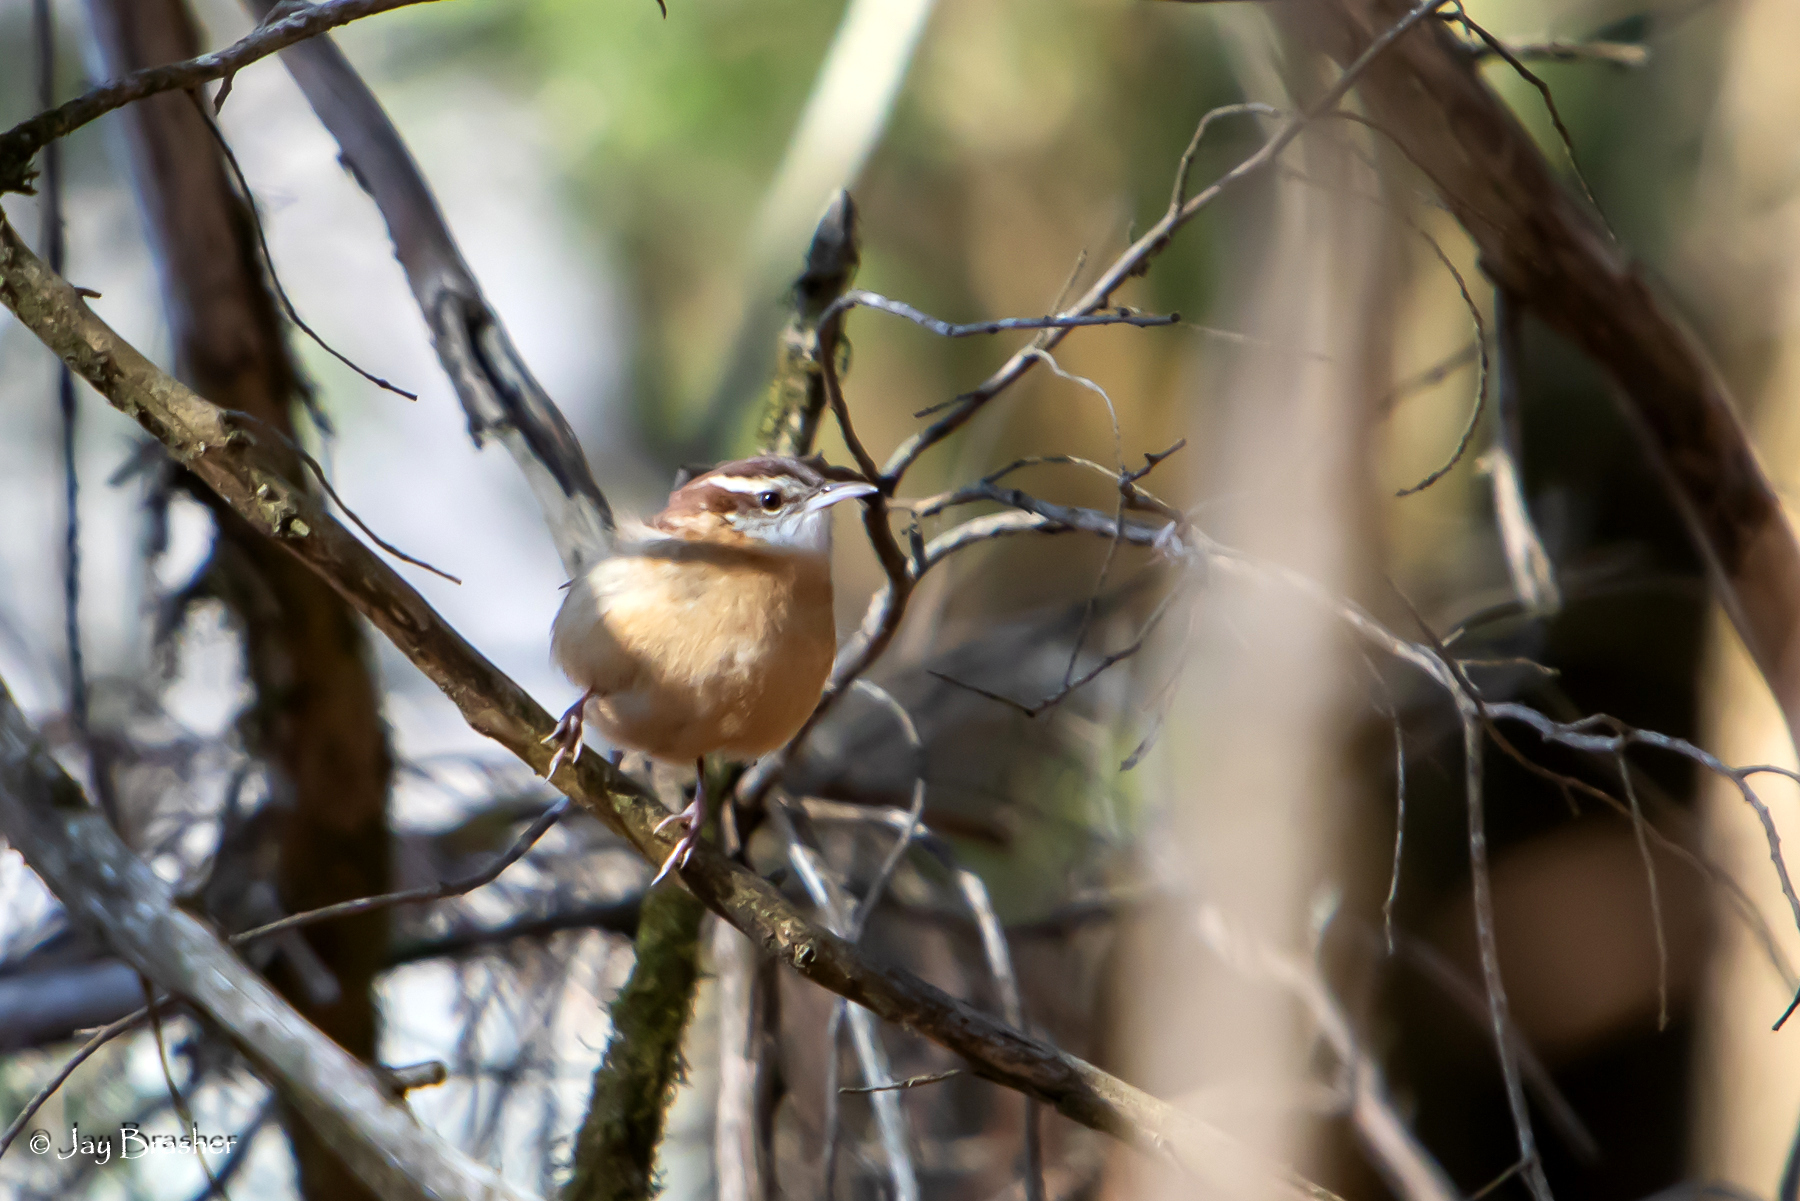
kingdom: Animalia
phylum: Chordata
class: Aves
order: Passeriformes
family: Troglodytidae
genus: Thryothorus
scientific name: Thryothorus ludovicianus
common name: Carolina wren
